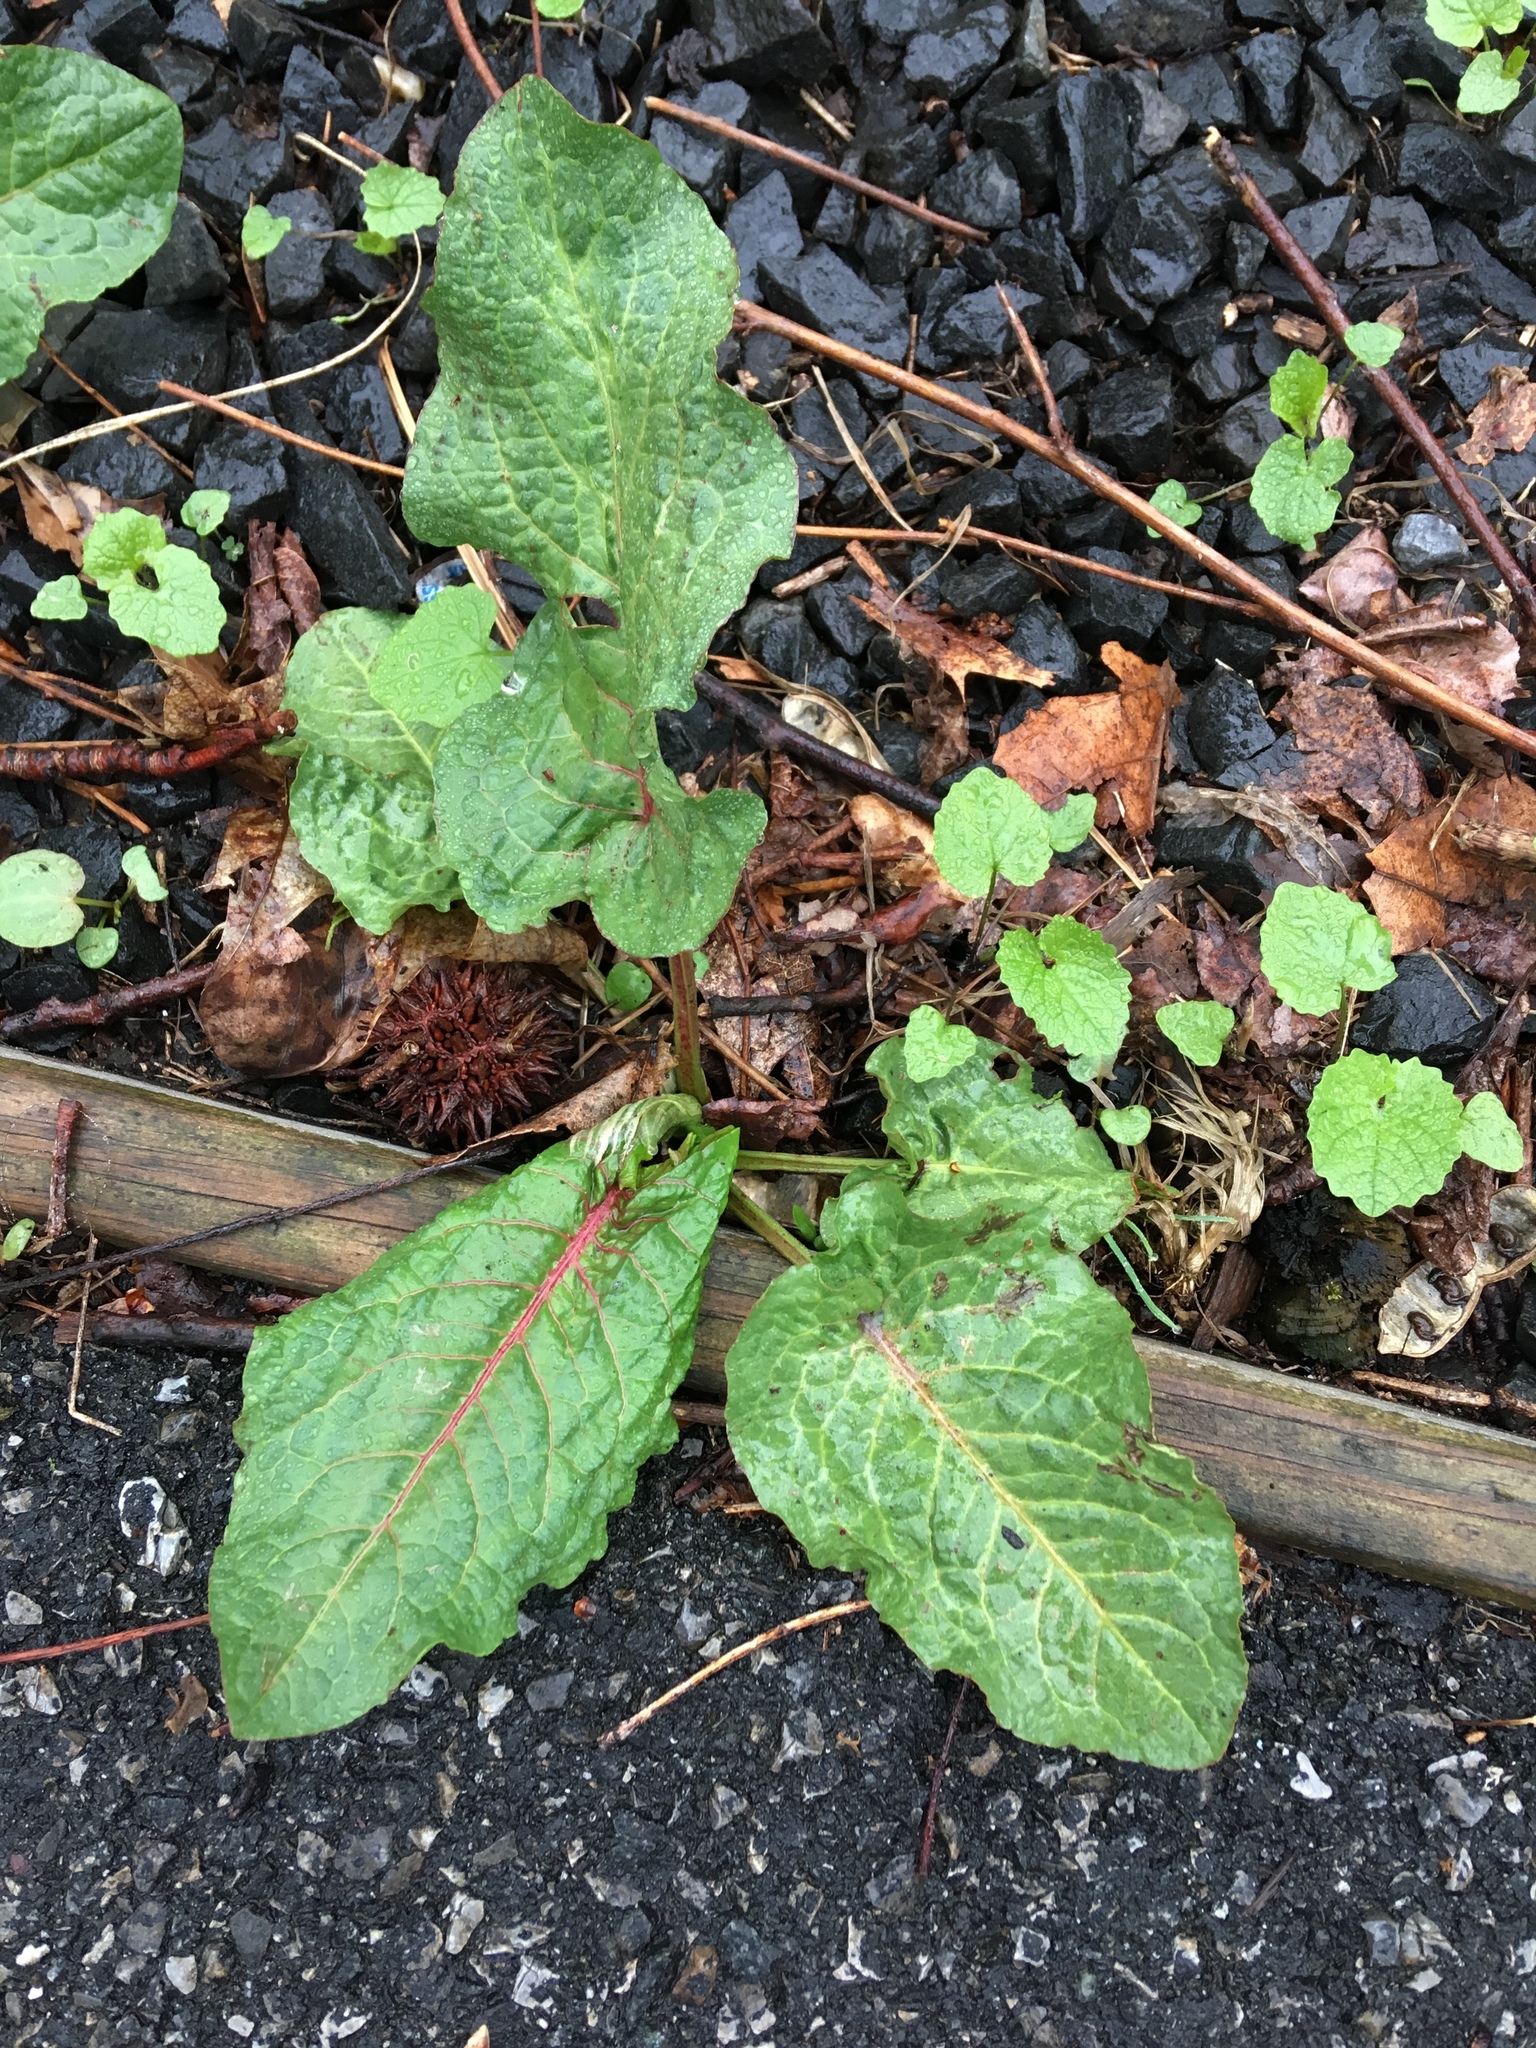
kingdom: Plantae
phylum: Tracheophyta
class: Magnoliopsida
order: Caryophyllales
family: Polygonaceae
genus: Rumex
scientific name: Rumex obtusifolius
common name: Bitter dock
